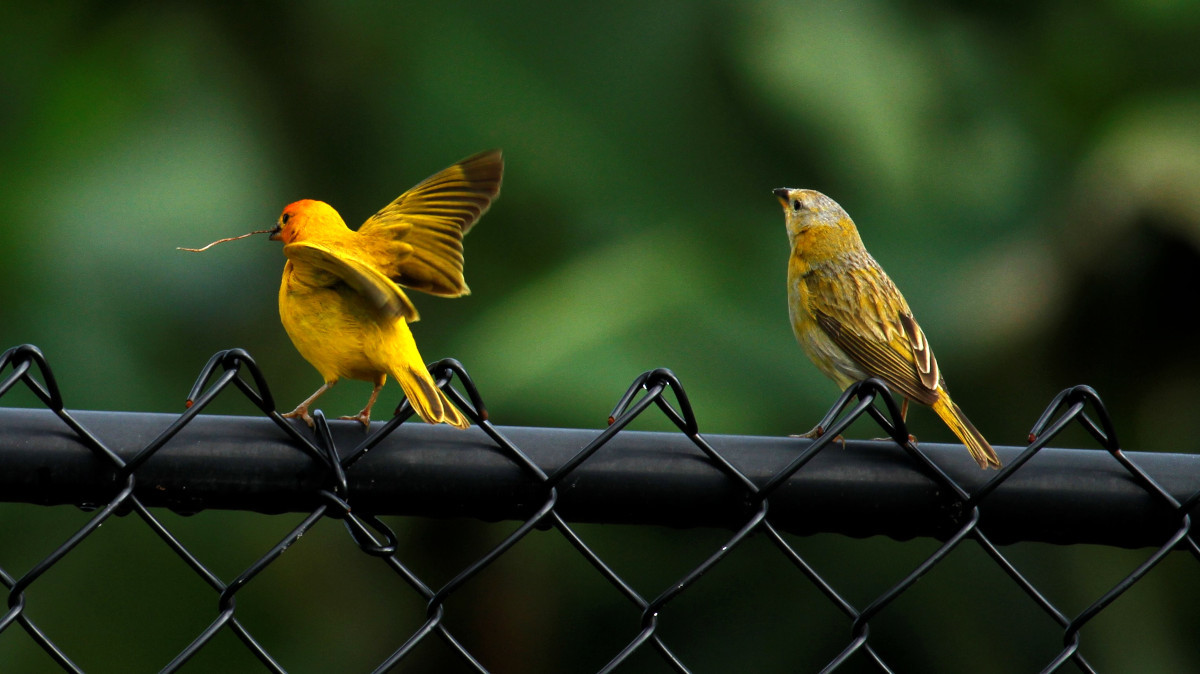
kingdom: Animalia
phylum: Chordata
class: Aves
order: Passeriformes
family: Thraupidae
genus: Sicalis
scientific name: Sicalis flaveola
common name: Saffron finch
